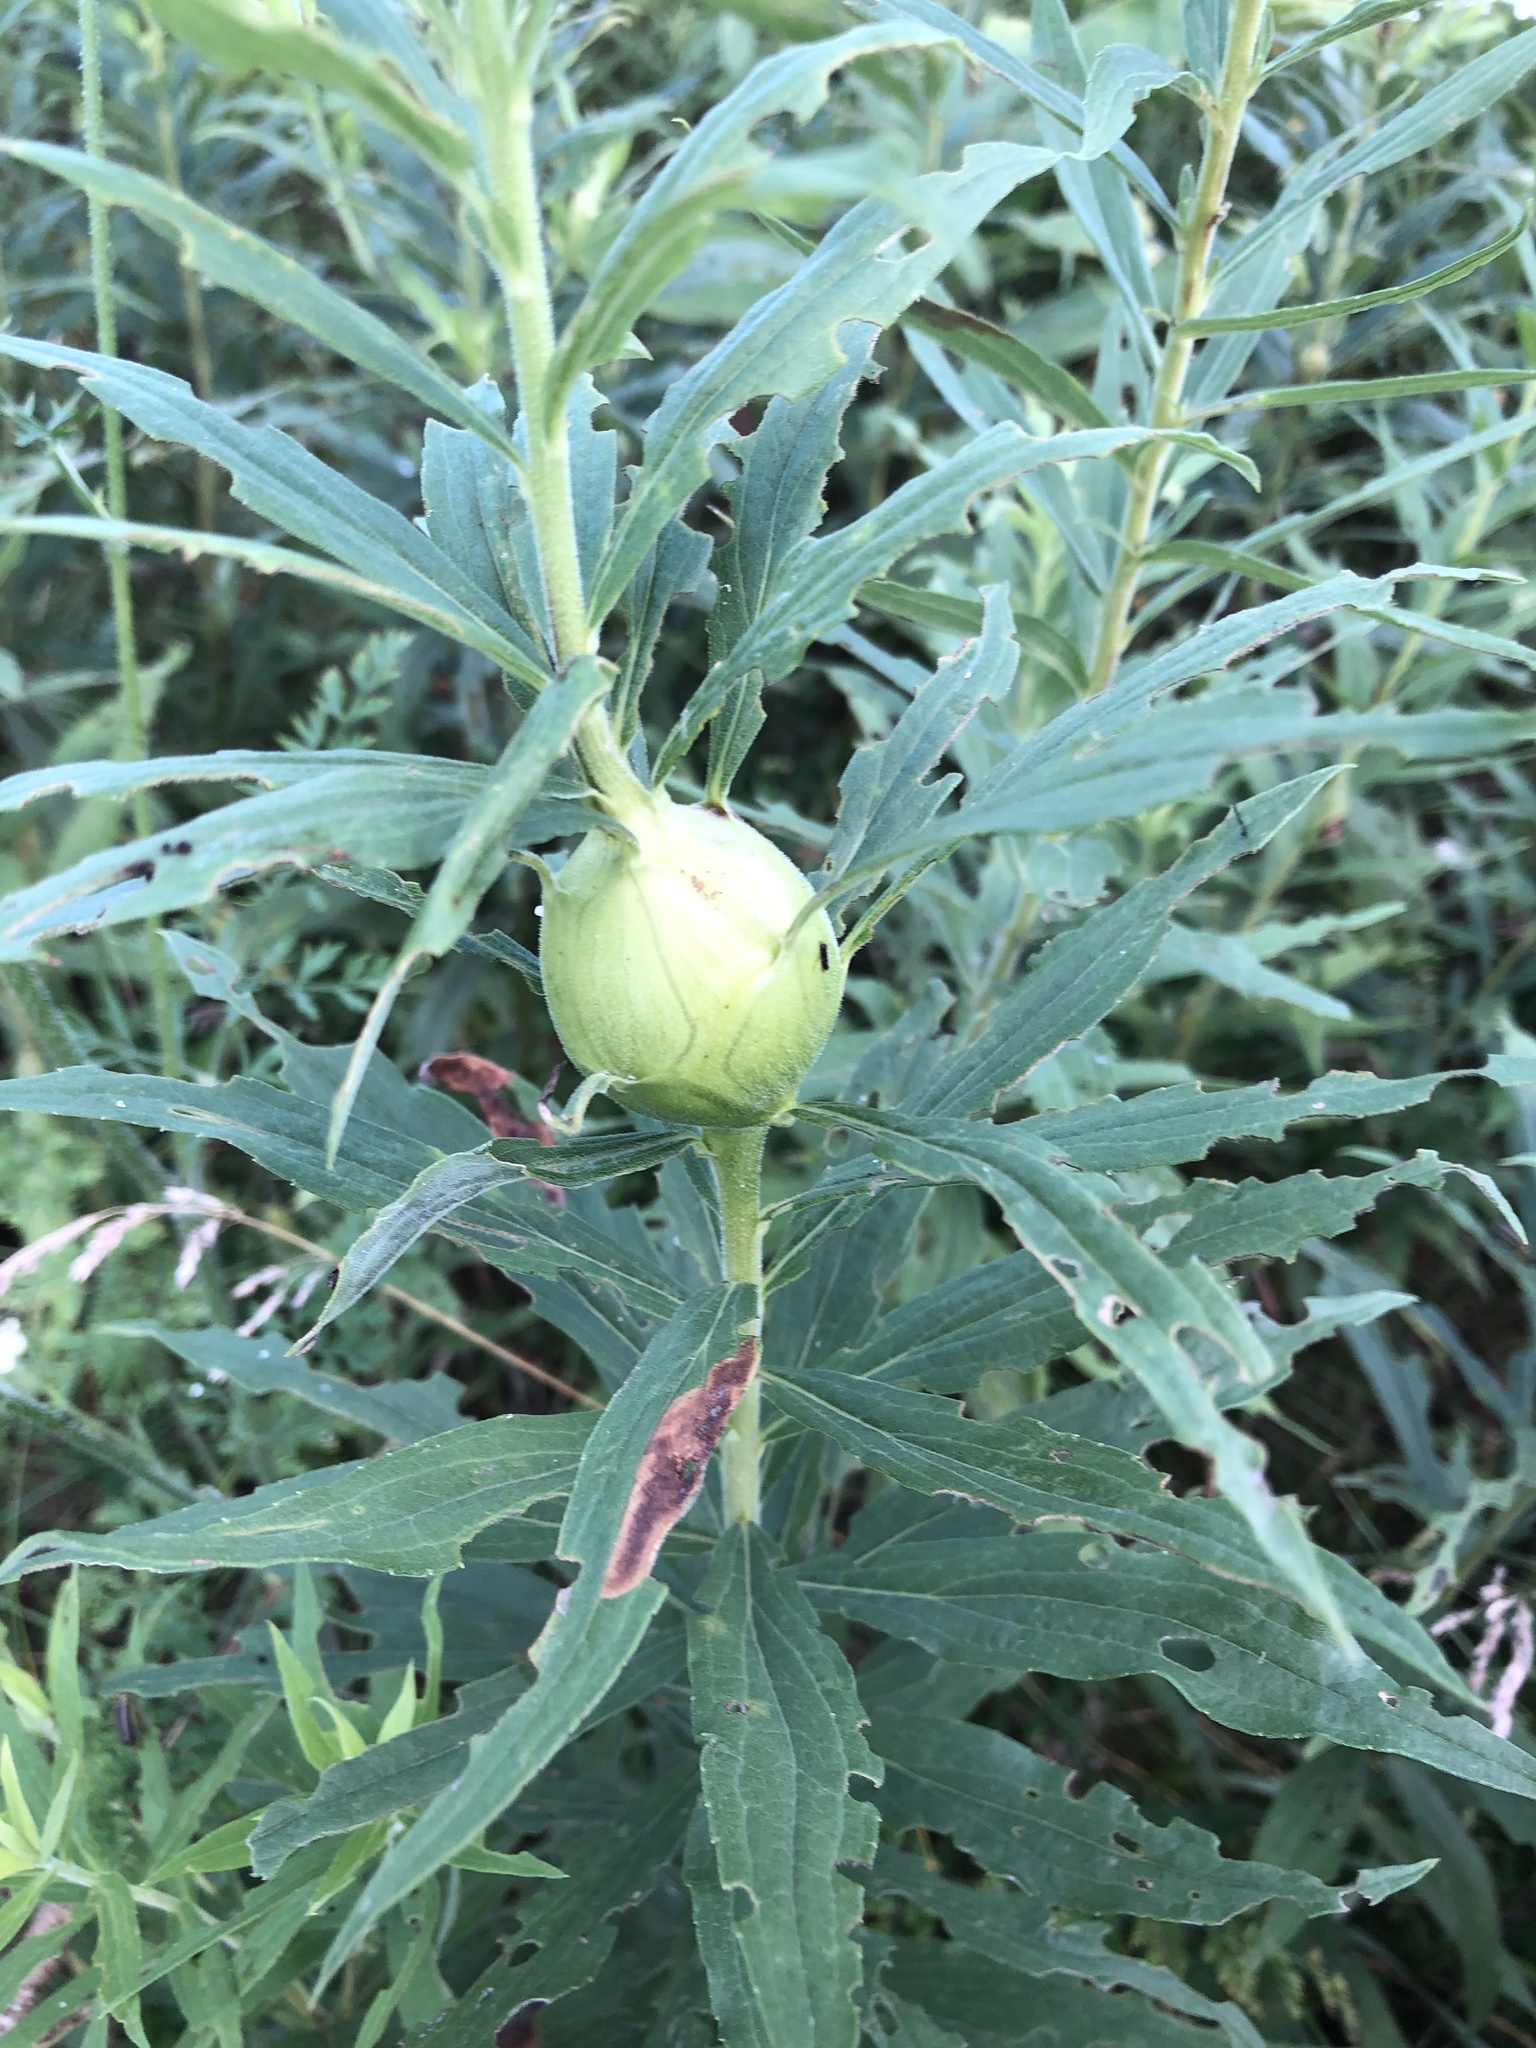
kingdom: Animalia
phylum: Arthropoda
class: Insecta
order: Diptera
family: Tephritidae
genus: Eurosta
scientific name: Eurosta solidaginis
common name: Goldenrod gall fly
